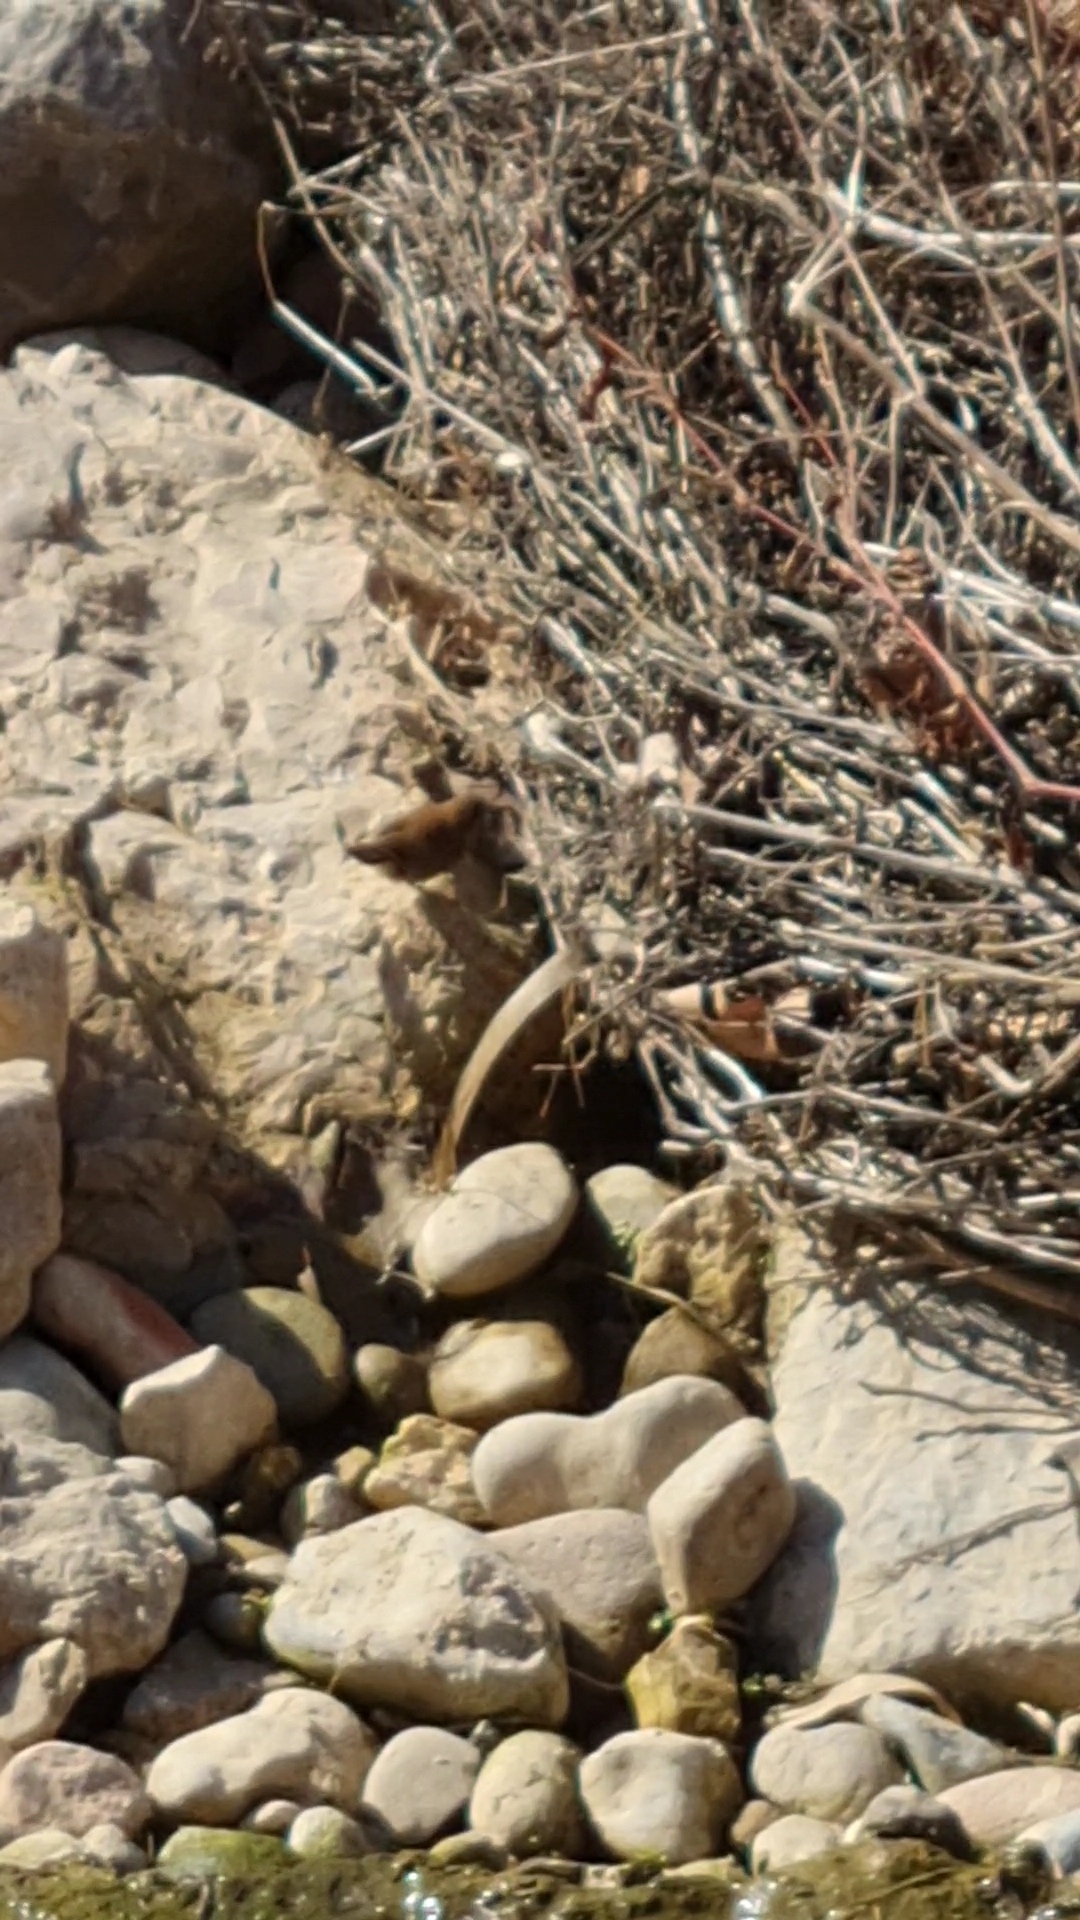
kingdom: Animalia
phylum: Chordata
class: Aves
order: Passeriformes
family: Cettiidae
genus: Cettia
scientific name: Cettia cetti
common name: Cetti's warbler
